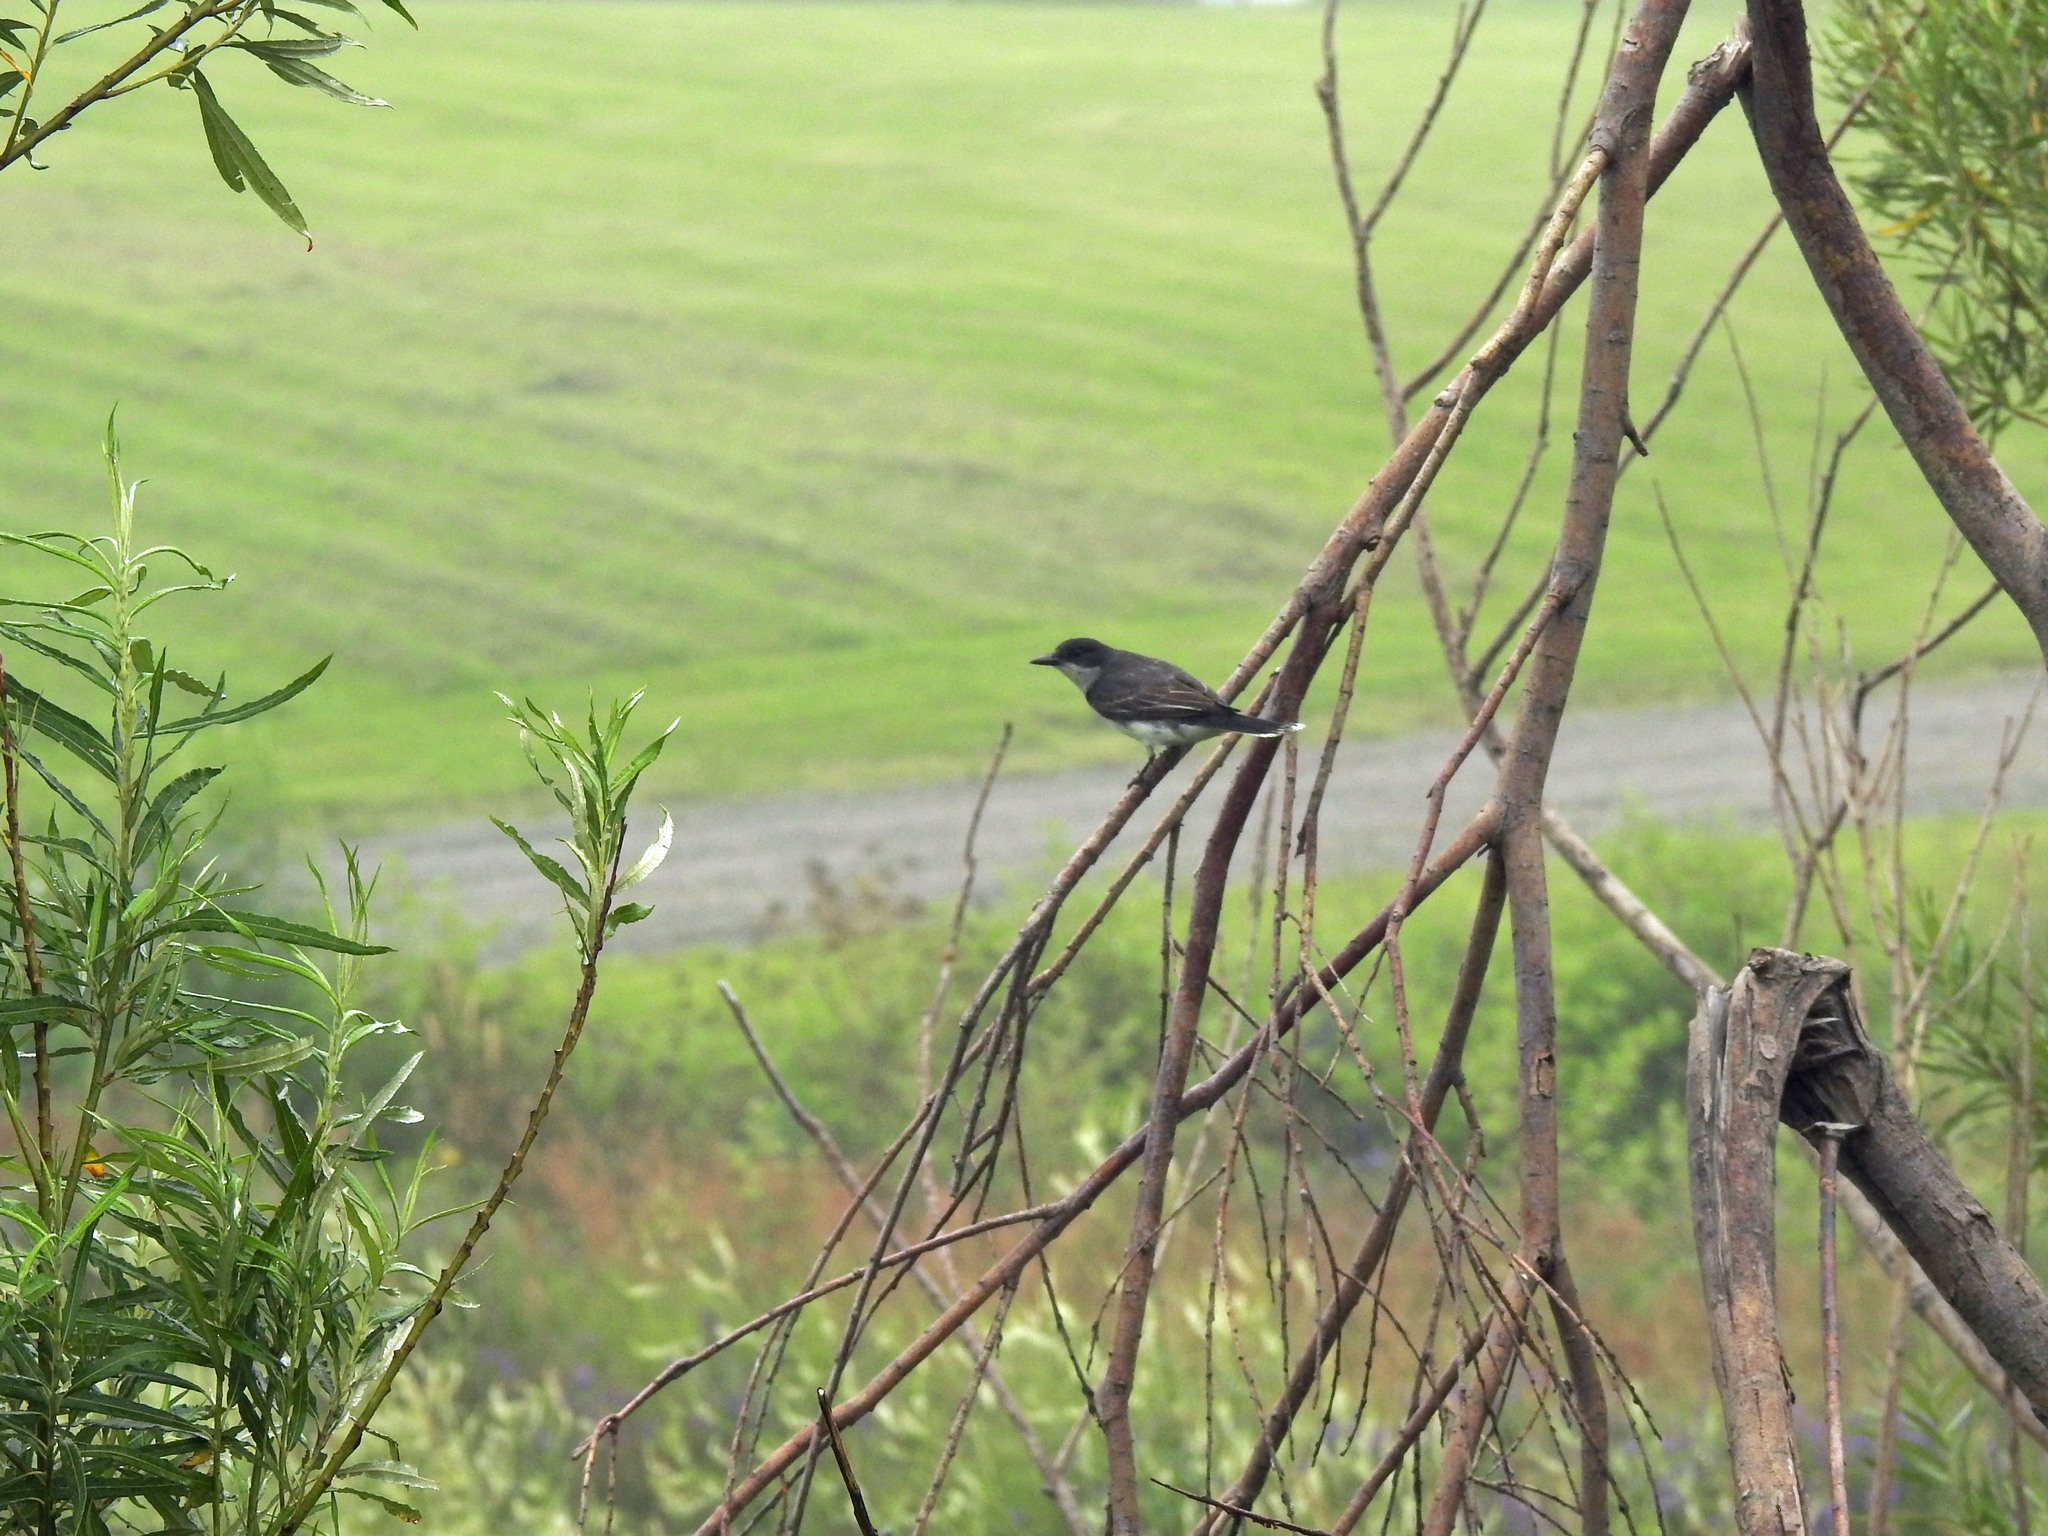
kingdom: Animalia
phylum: Chordata
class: Aves
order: Passeriformes
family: Tyrannidae
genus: Tyrannus
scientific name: Tyrannus tyrannus
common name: Eastern kingbird
